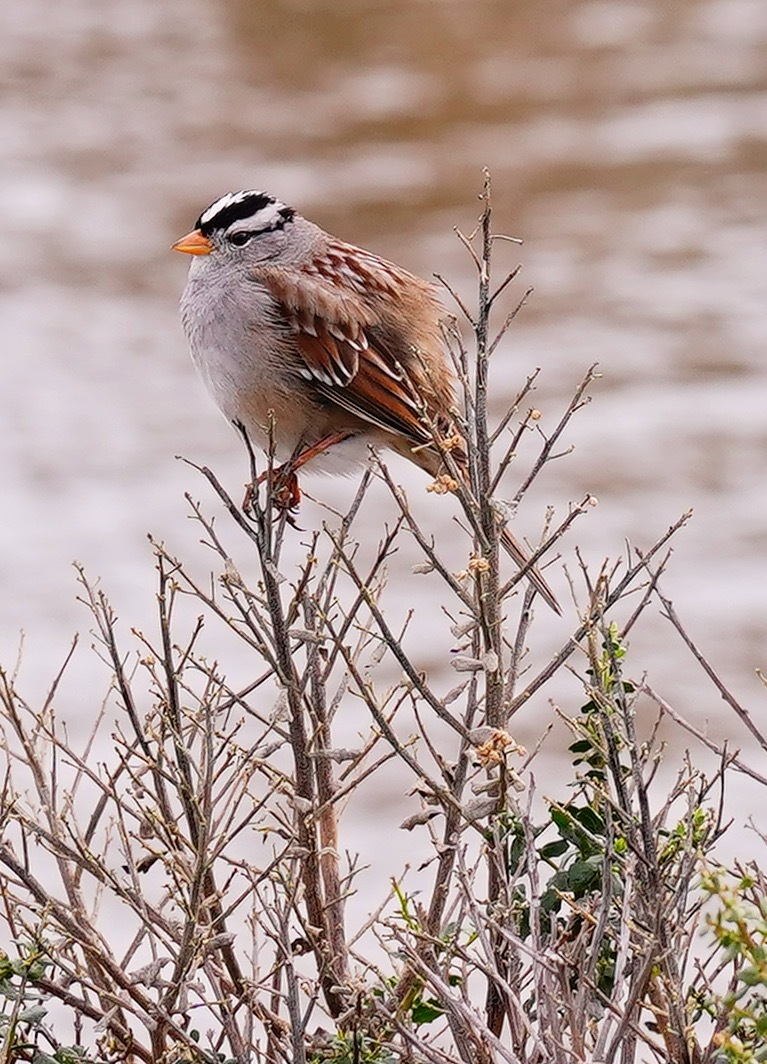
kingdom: Animalia
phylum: Chordata
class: Aves
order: Passeriformes
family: Passerellidae
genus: Zonotrichia
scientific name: Zonotrichia leucophrys
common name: White-crowned sparrow
